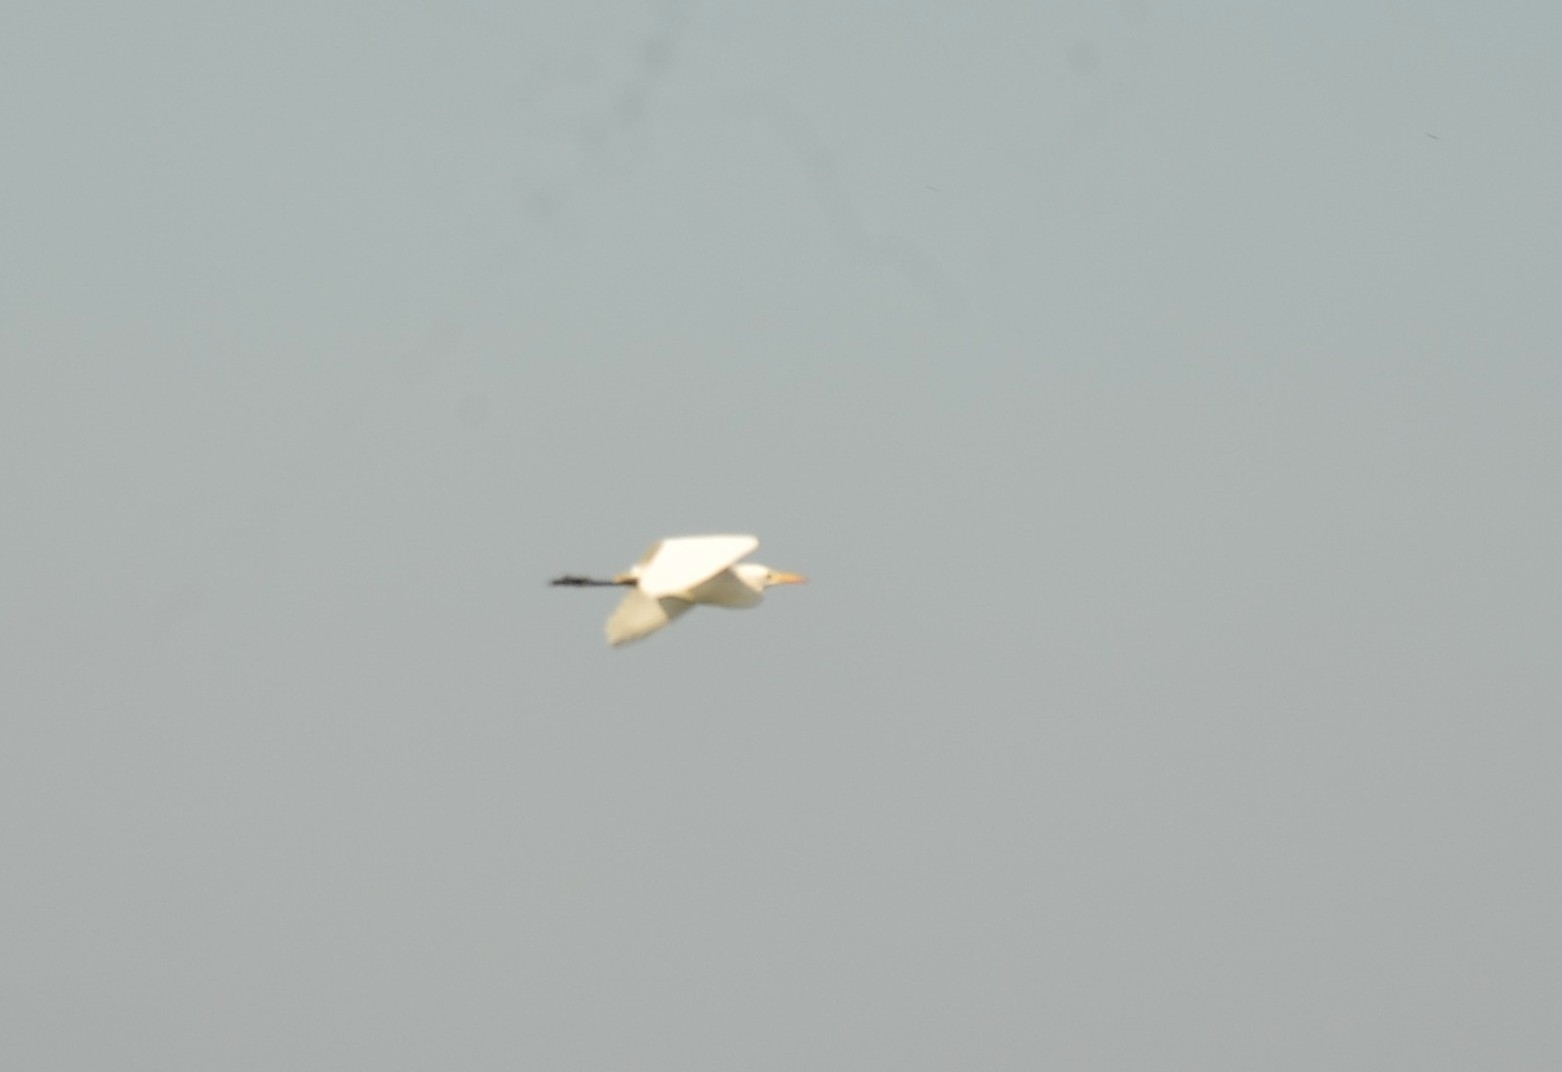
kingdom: Animalia
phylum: Chordata
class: Aves
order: Pelecaniformes
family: Ardeidae
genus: Bubulcus
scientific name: Bubulcus coromandus
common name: Eastern cattle egret
